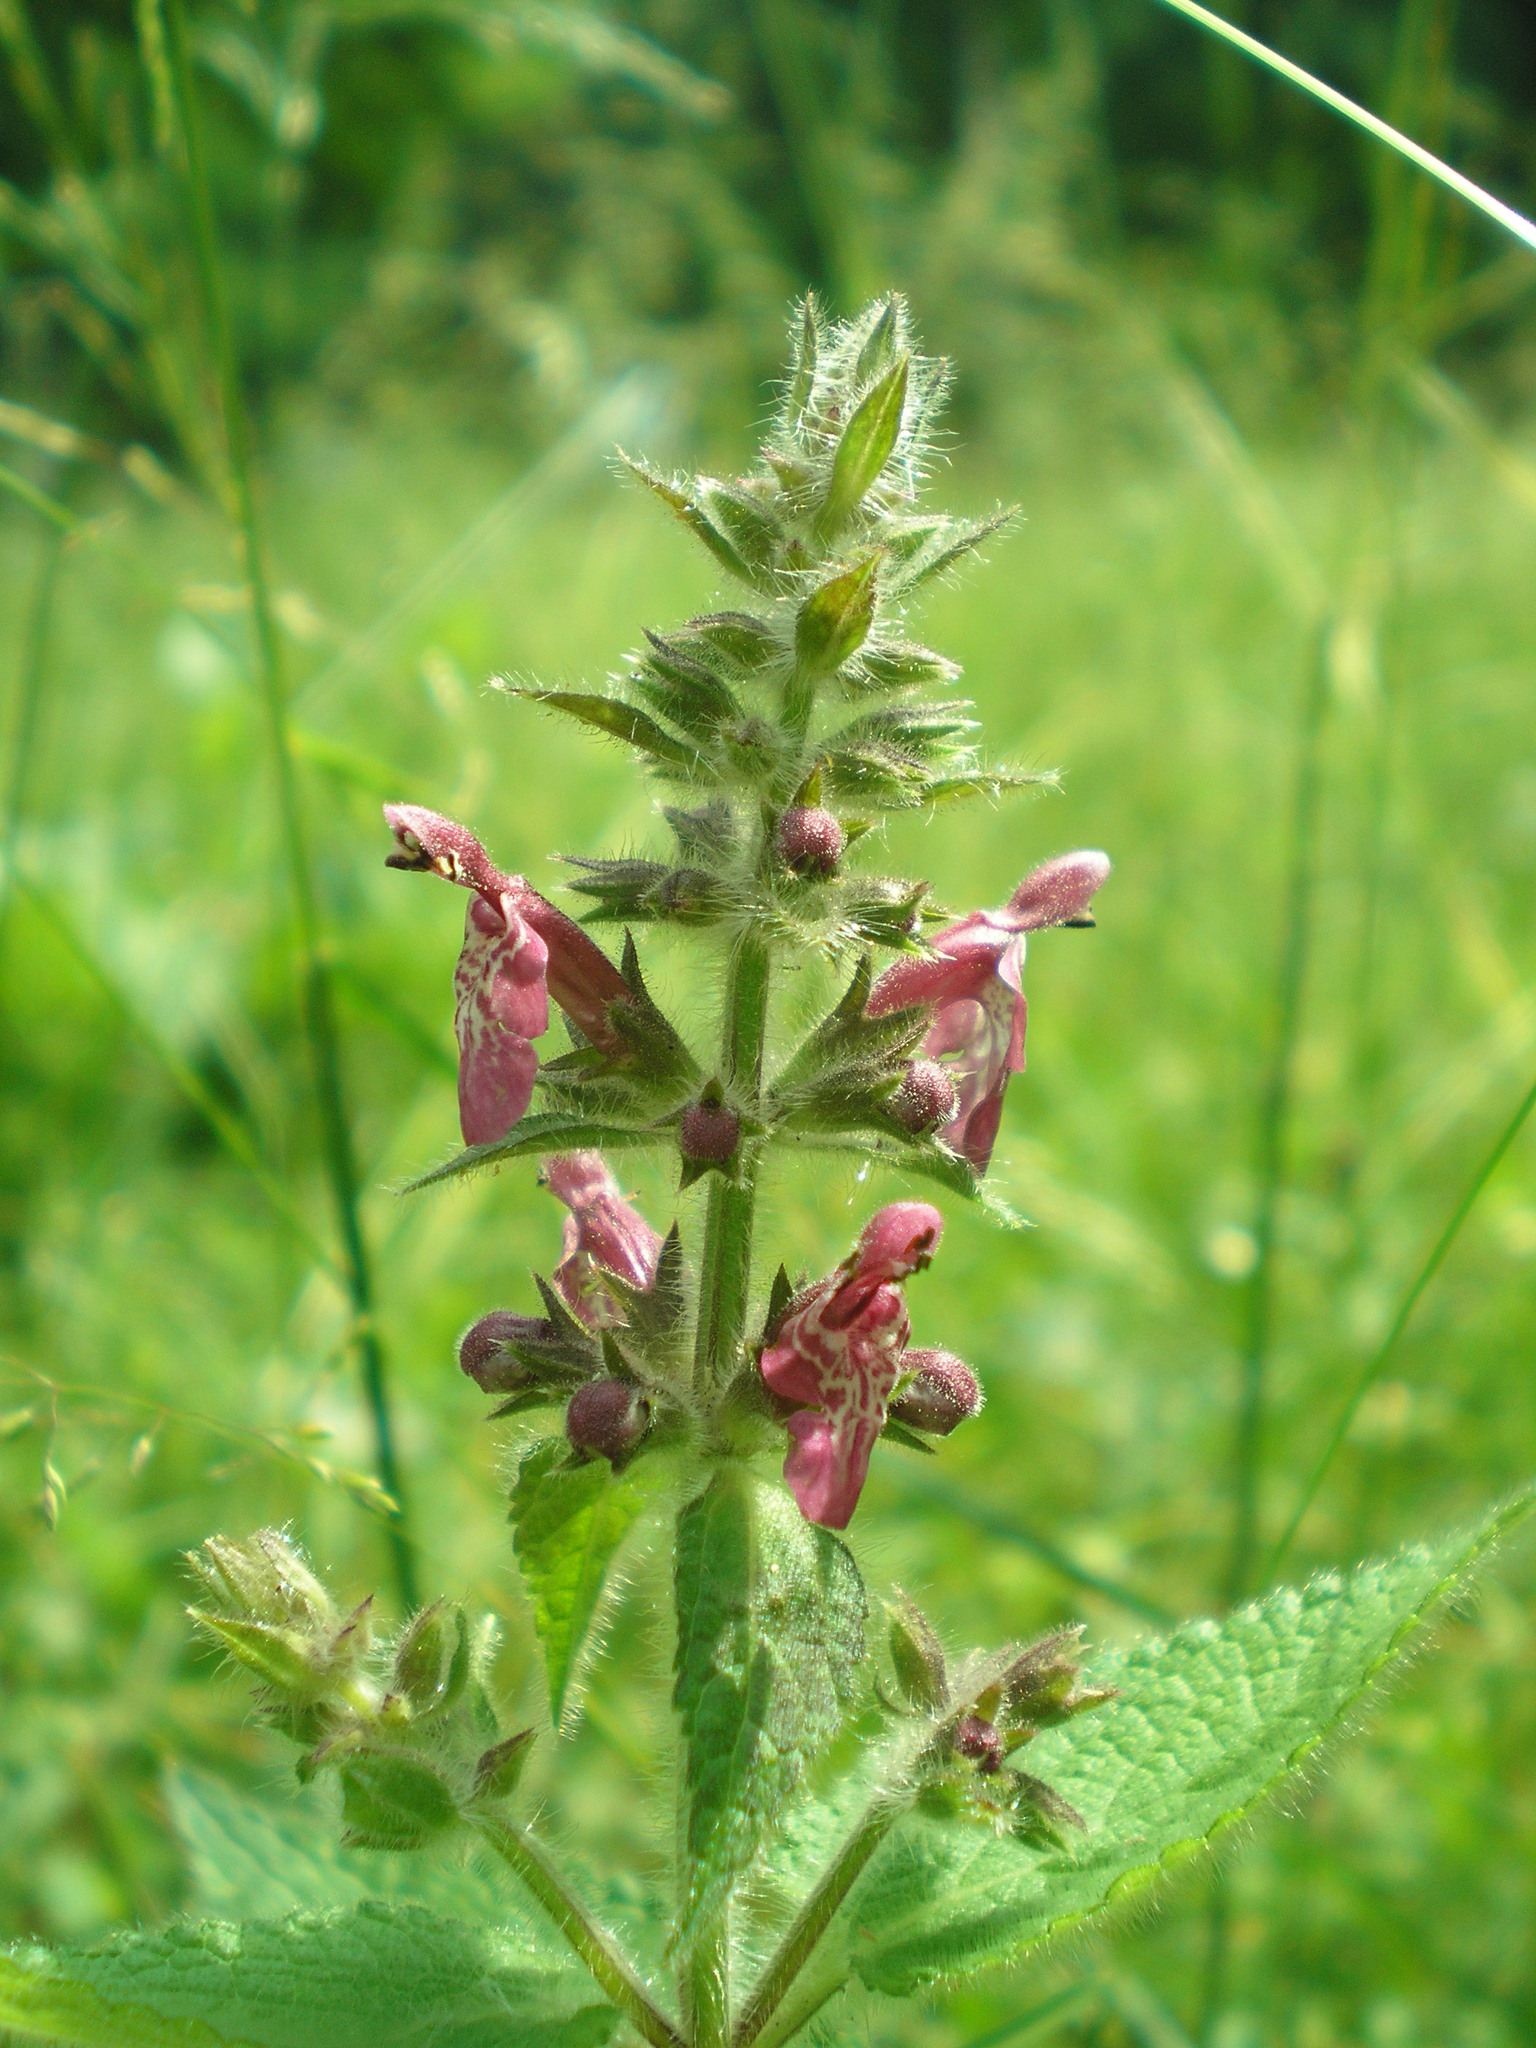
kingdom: Plantae
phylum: Tracheophyta
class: Magnoliopsida
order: Lamiales
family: Lamiaceae
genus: Stachys
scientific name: Stachys sylvatica
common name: Hedge woundwort
